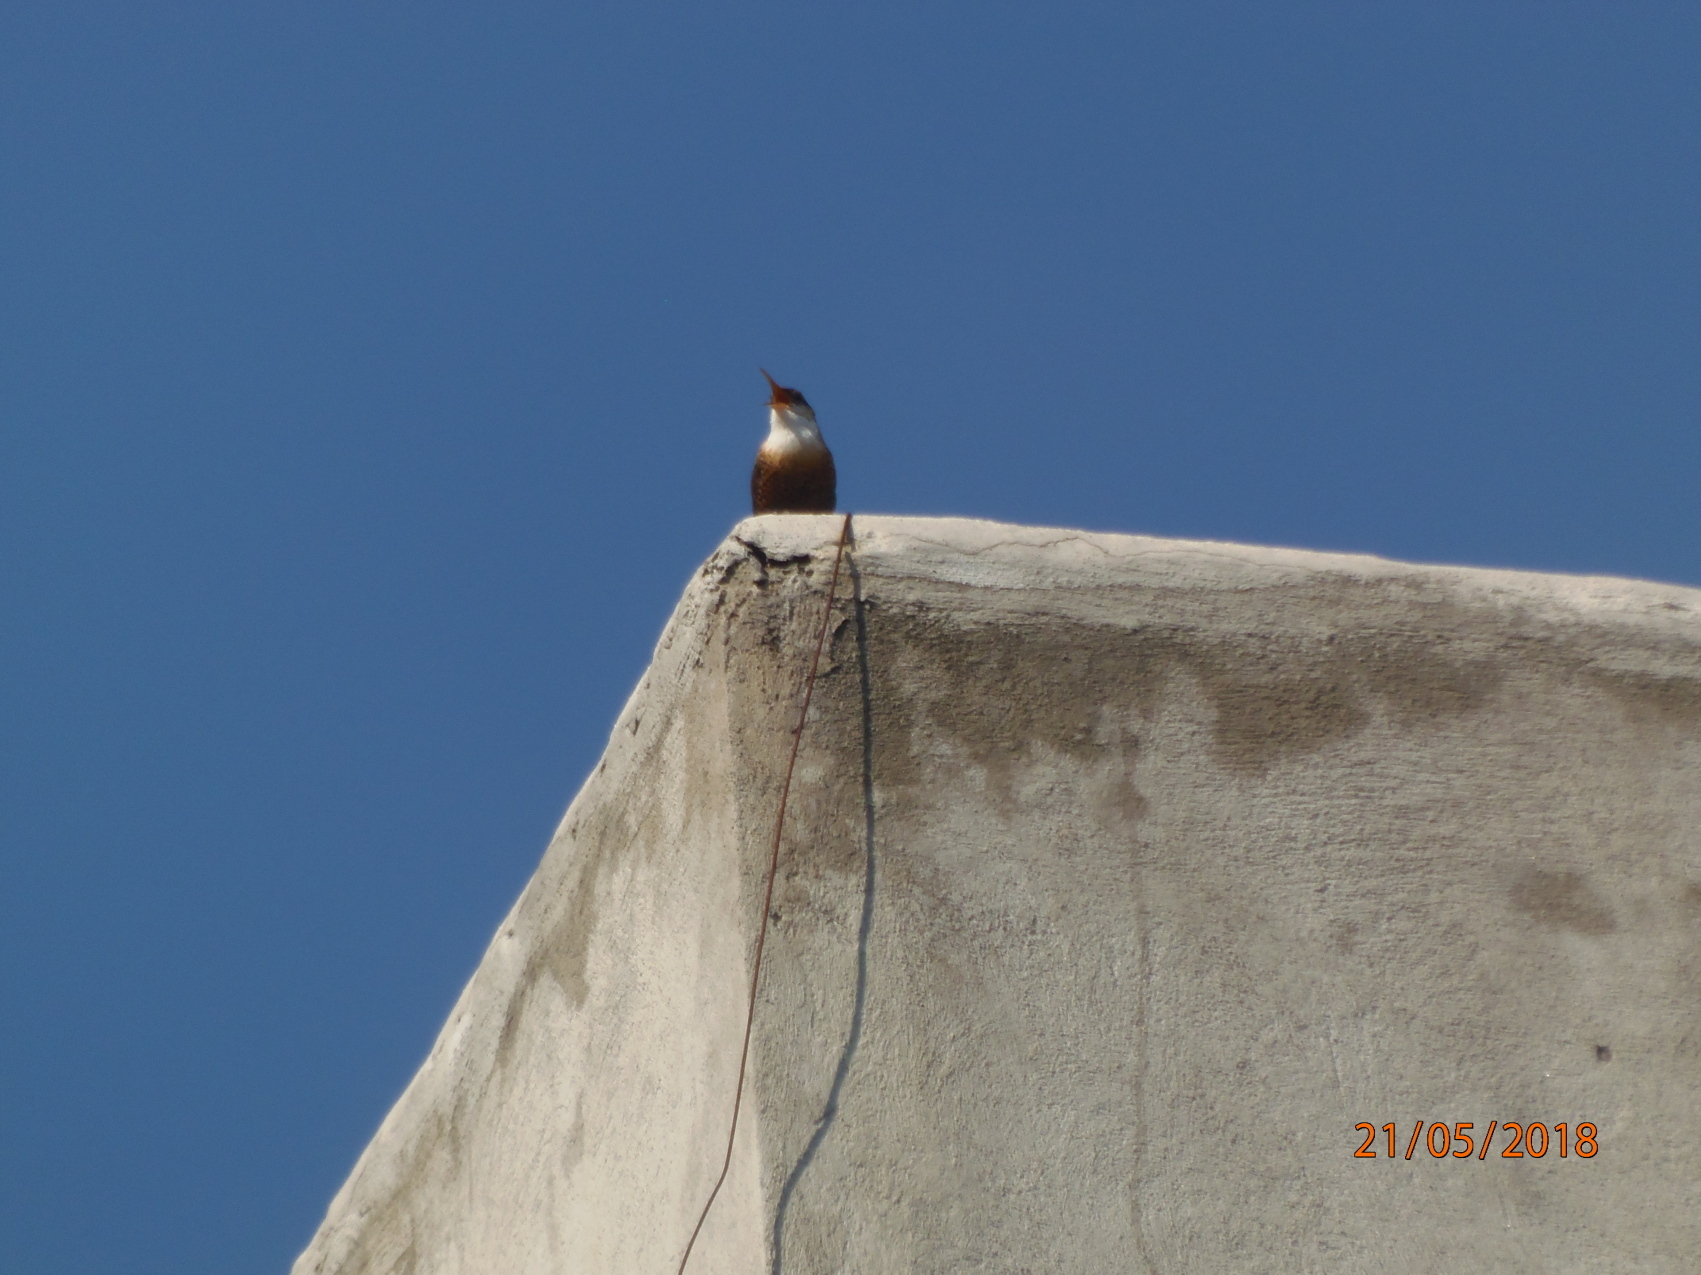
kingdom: Animalia
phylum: Chordata
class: Aves
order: Passeriformes
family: Troglodytidae
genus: Catherpes
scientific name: Catherpes mexicanus
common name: Canyon wren
